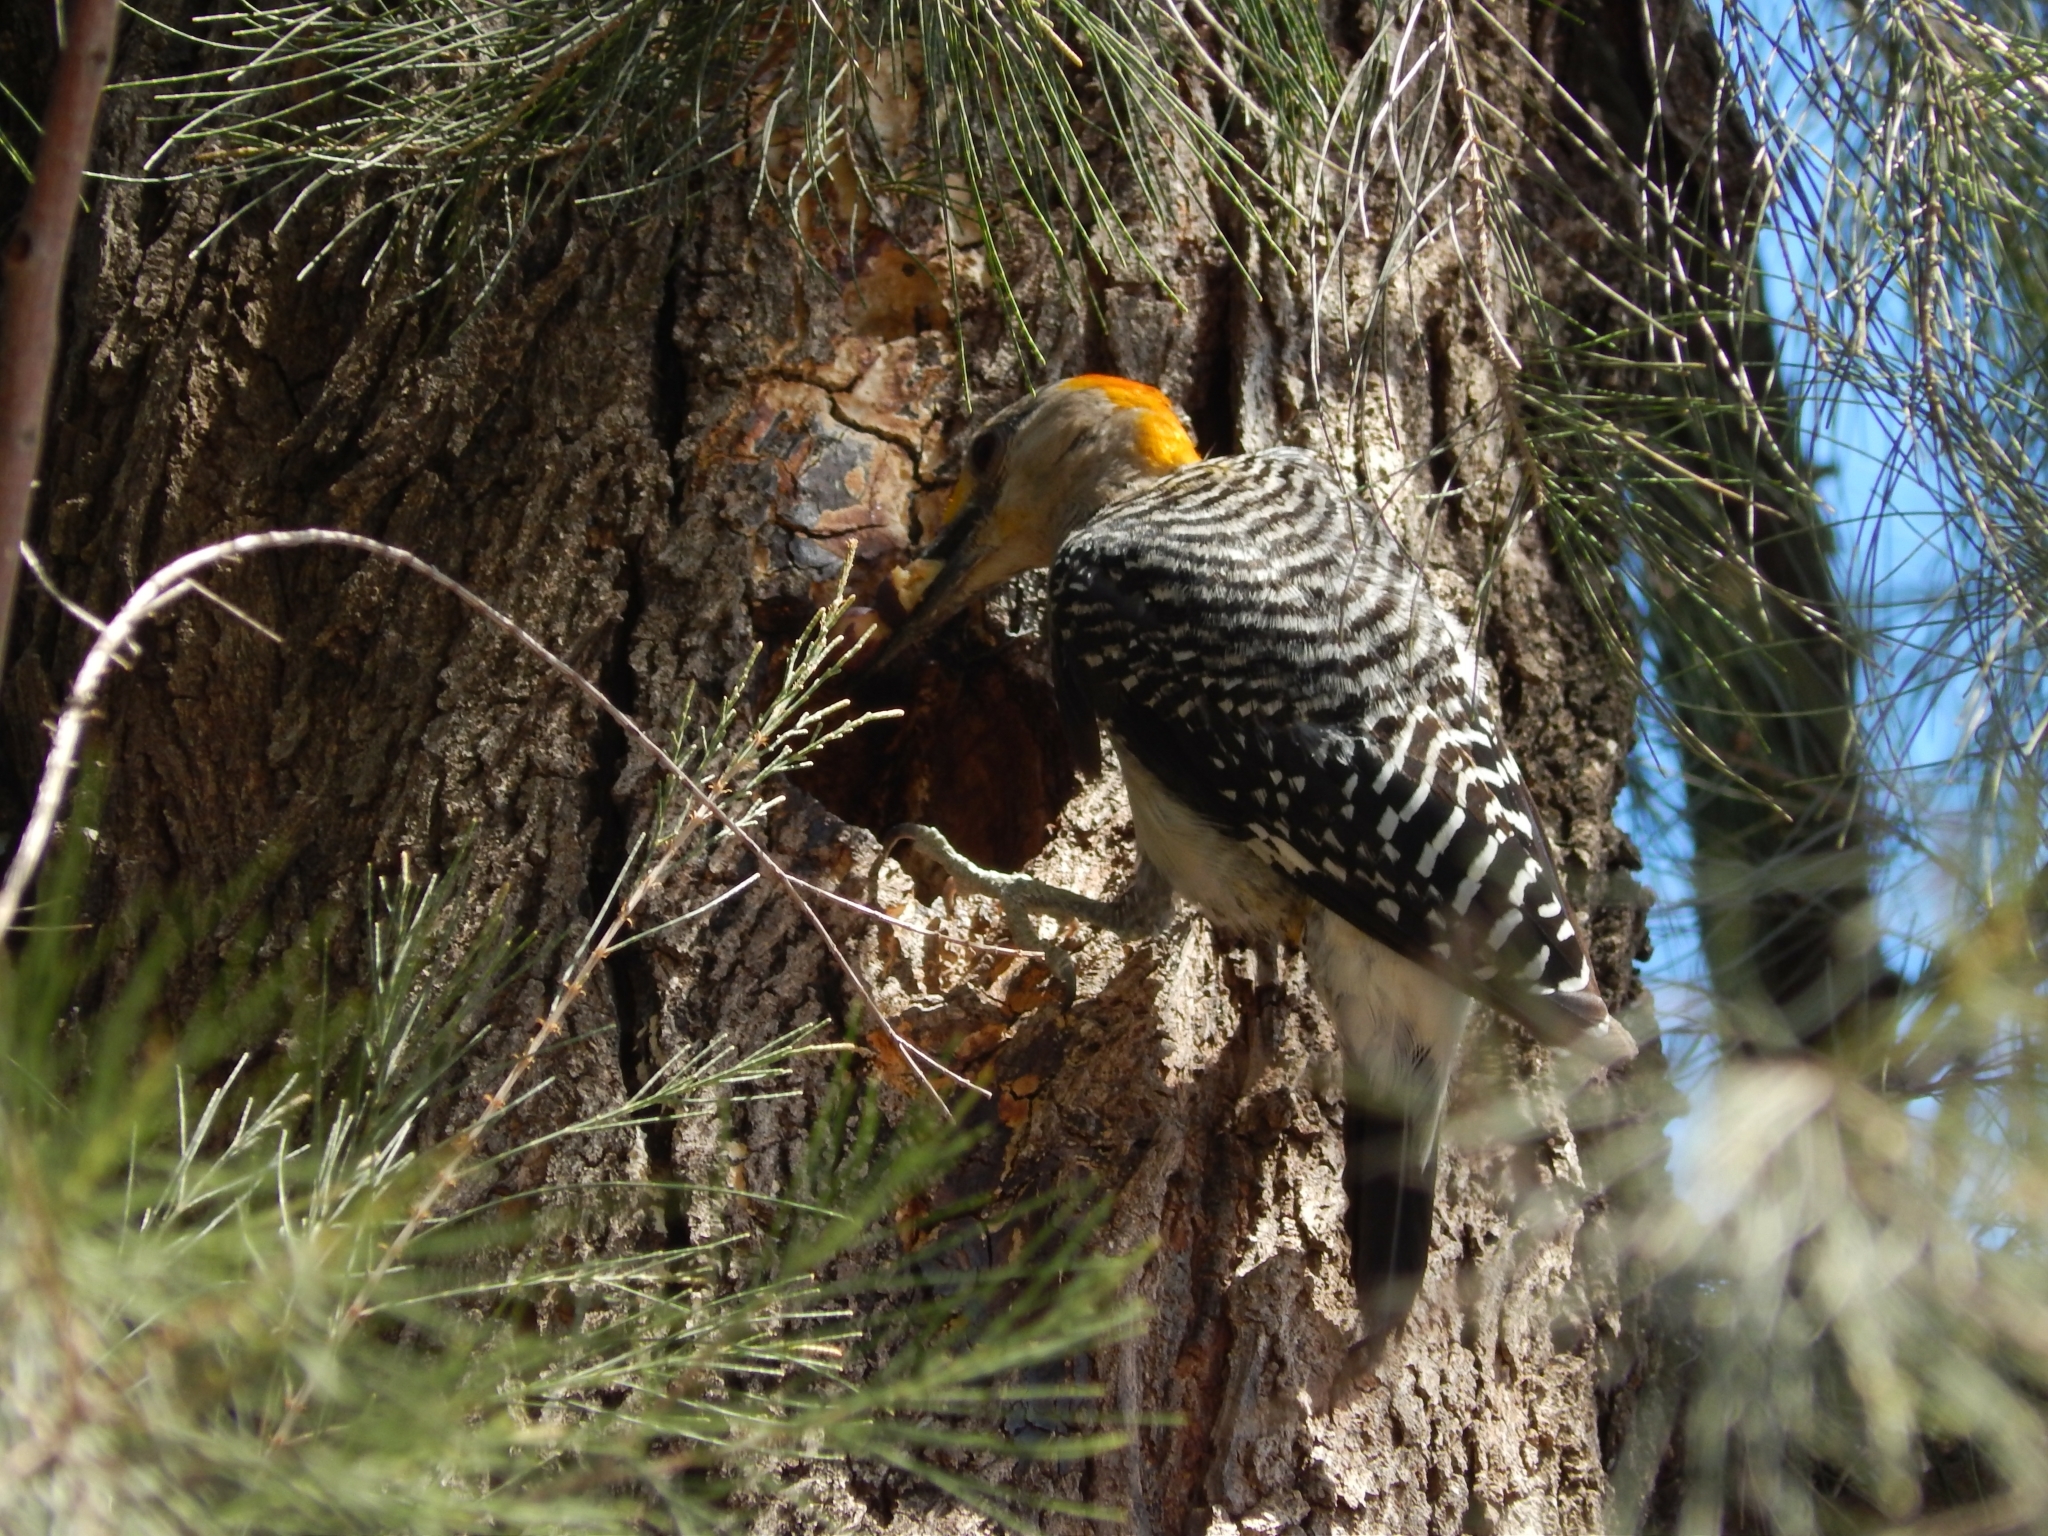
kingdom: Animalia
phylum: Chordata
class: Aves
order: Piciformes
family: Picidae
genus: Melanerpes
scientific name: Melanerpes aurifrons
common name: Golden-fronted woodpecker
